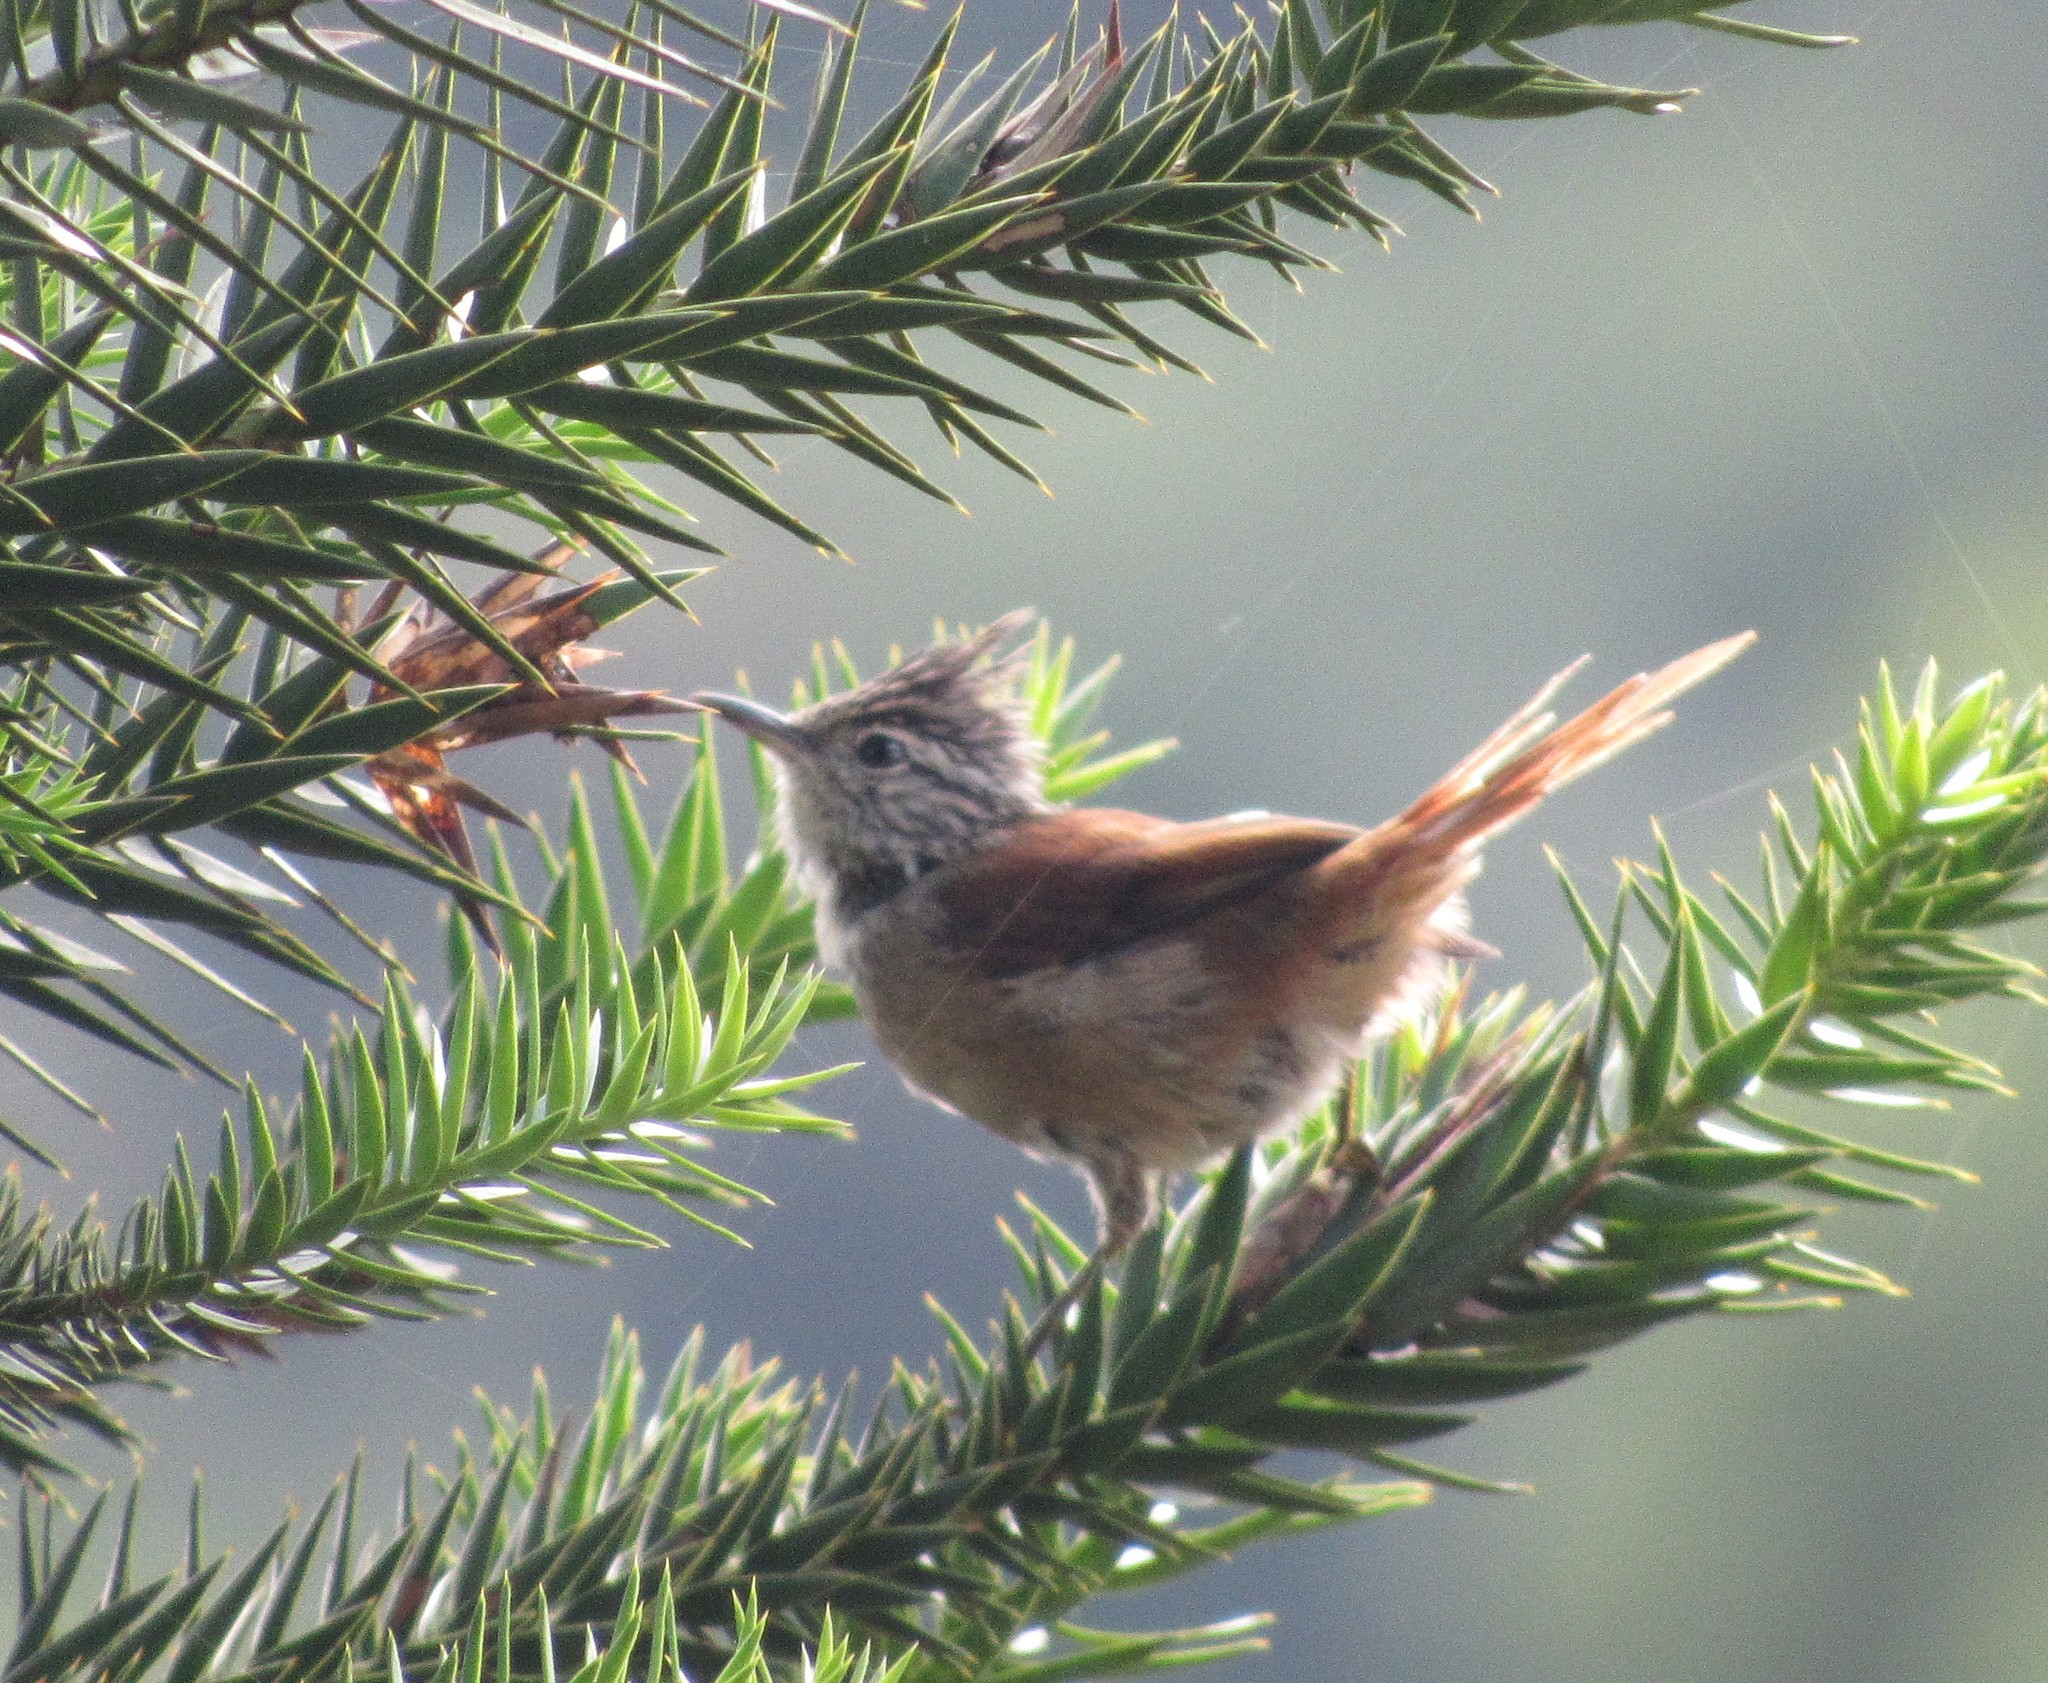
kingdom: Animalia
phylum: Chordata
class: Aves
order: Passeriformes
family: Furnariidae
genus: Leptasthenura
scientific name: Leptasthenura setaria
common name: Araucaria tit-spinetail
